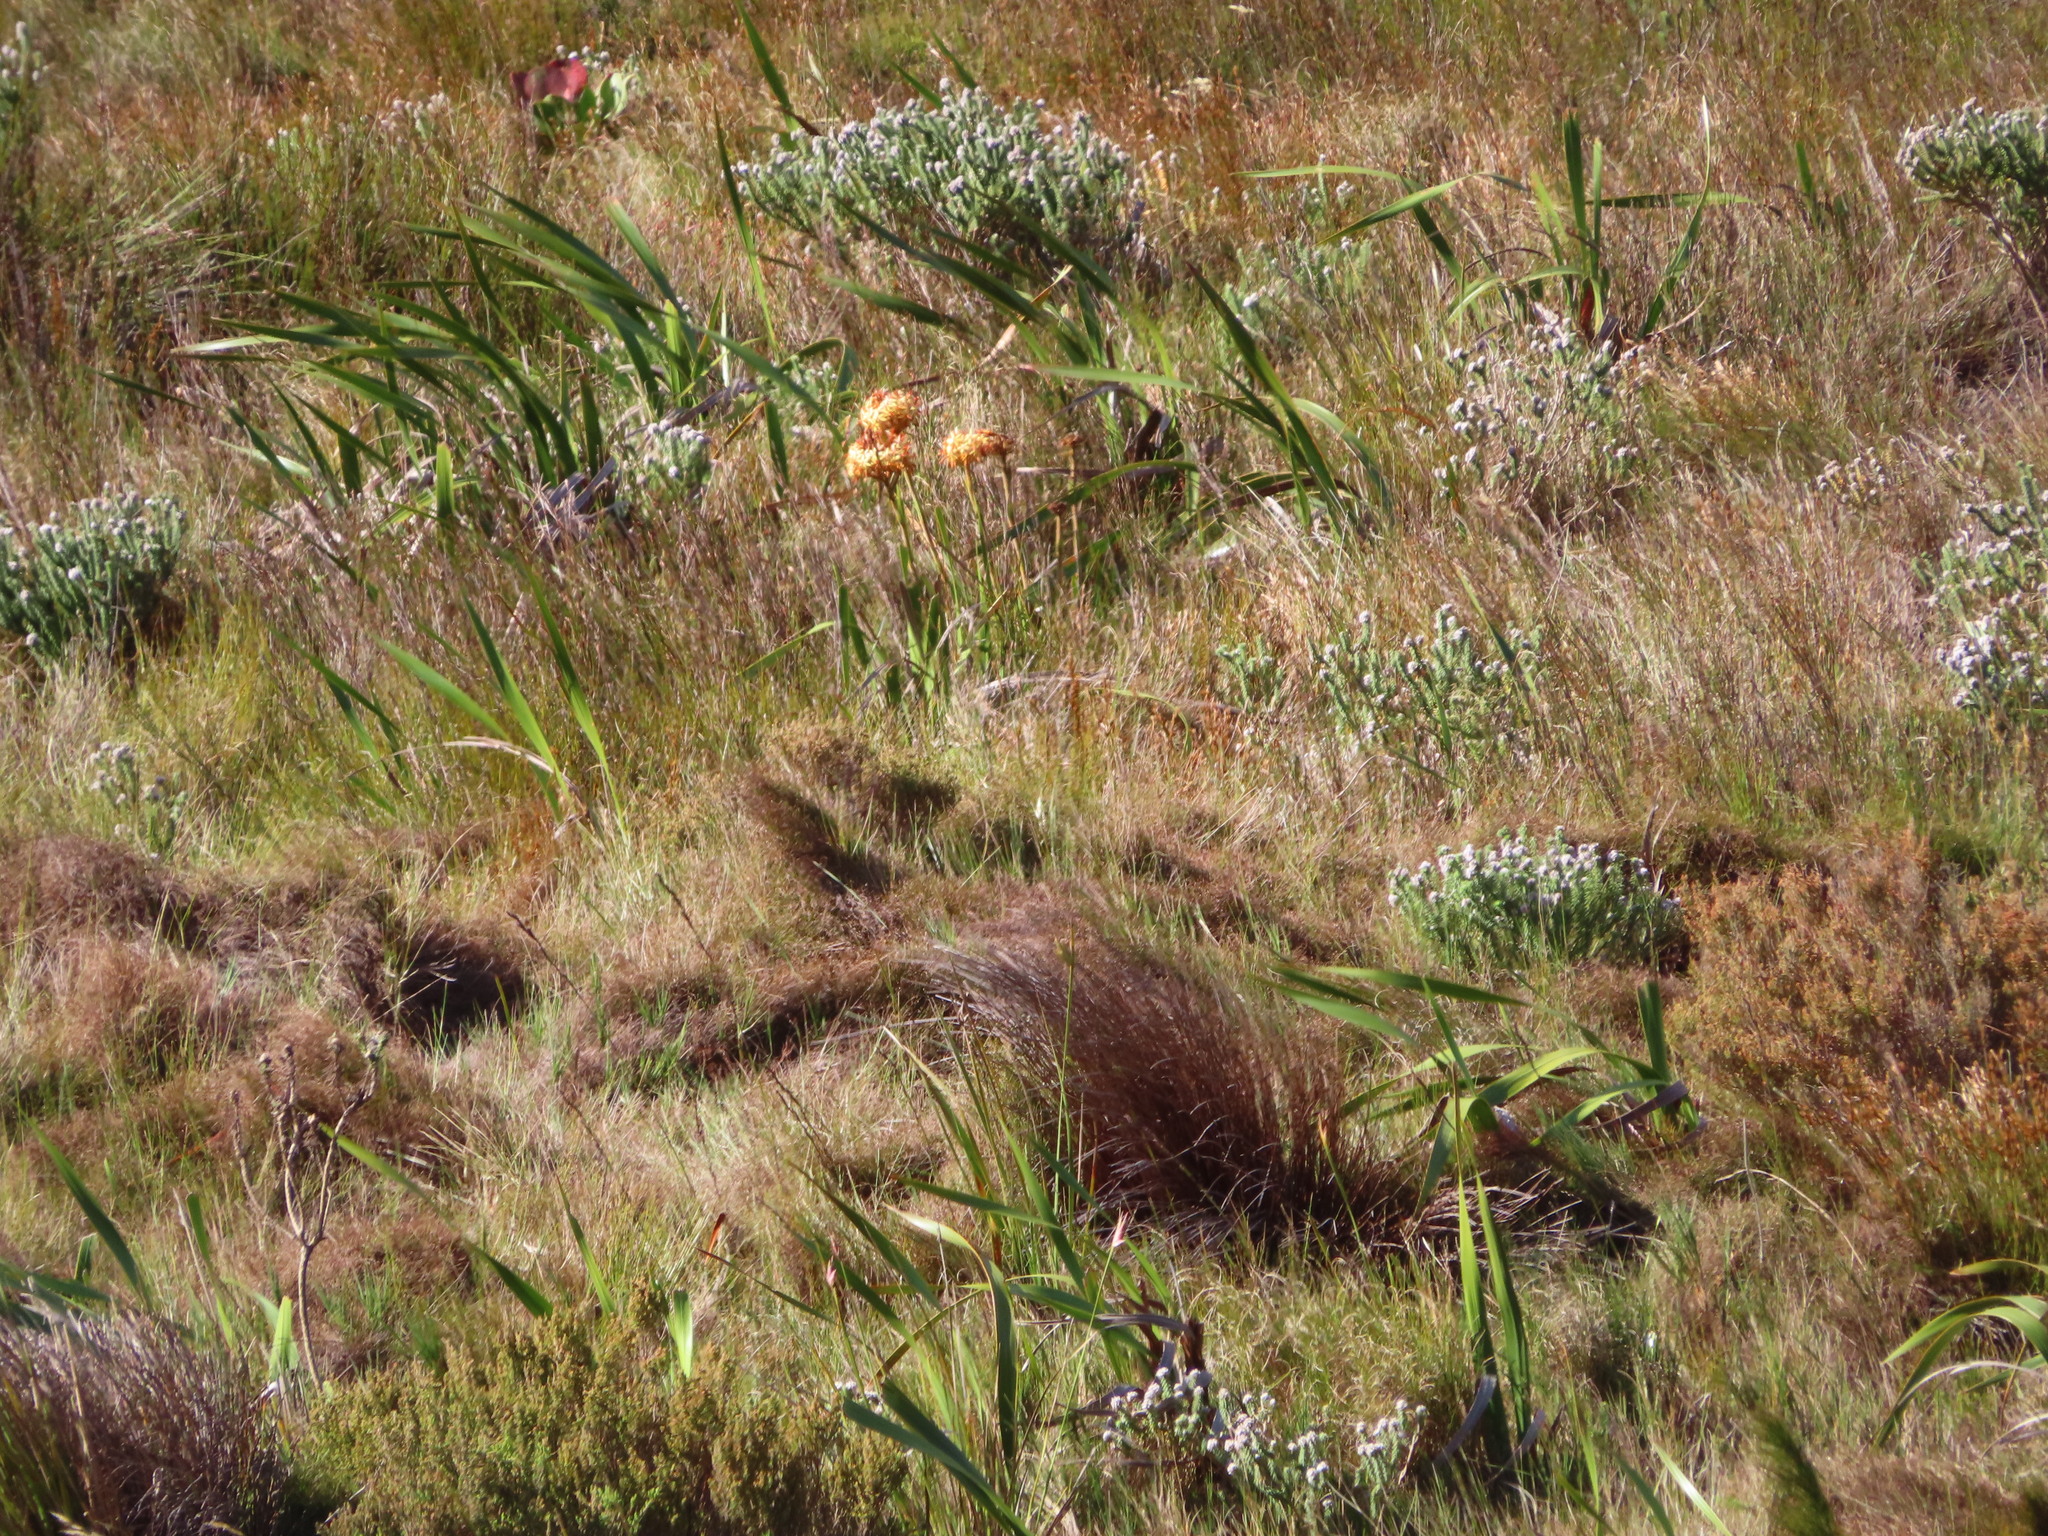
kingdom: Plantae
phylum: Tracheophyta
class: Liliopsida
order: Commelinales
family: Haemodoraceae
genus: Dilatris
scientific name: Dilatris viscosa
